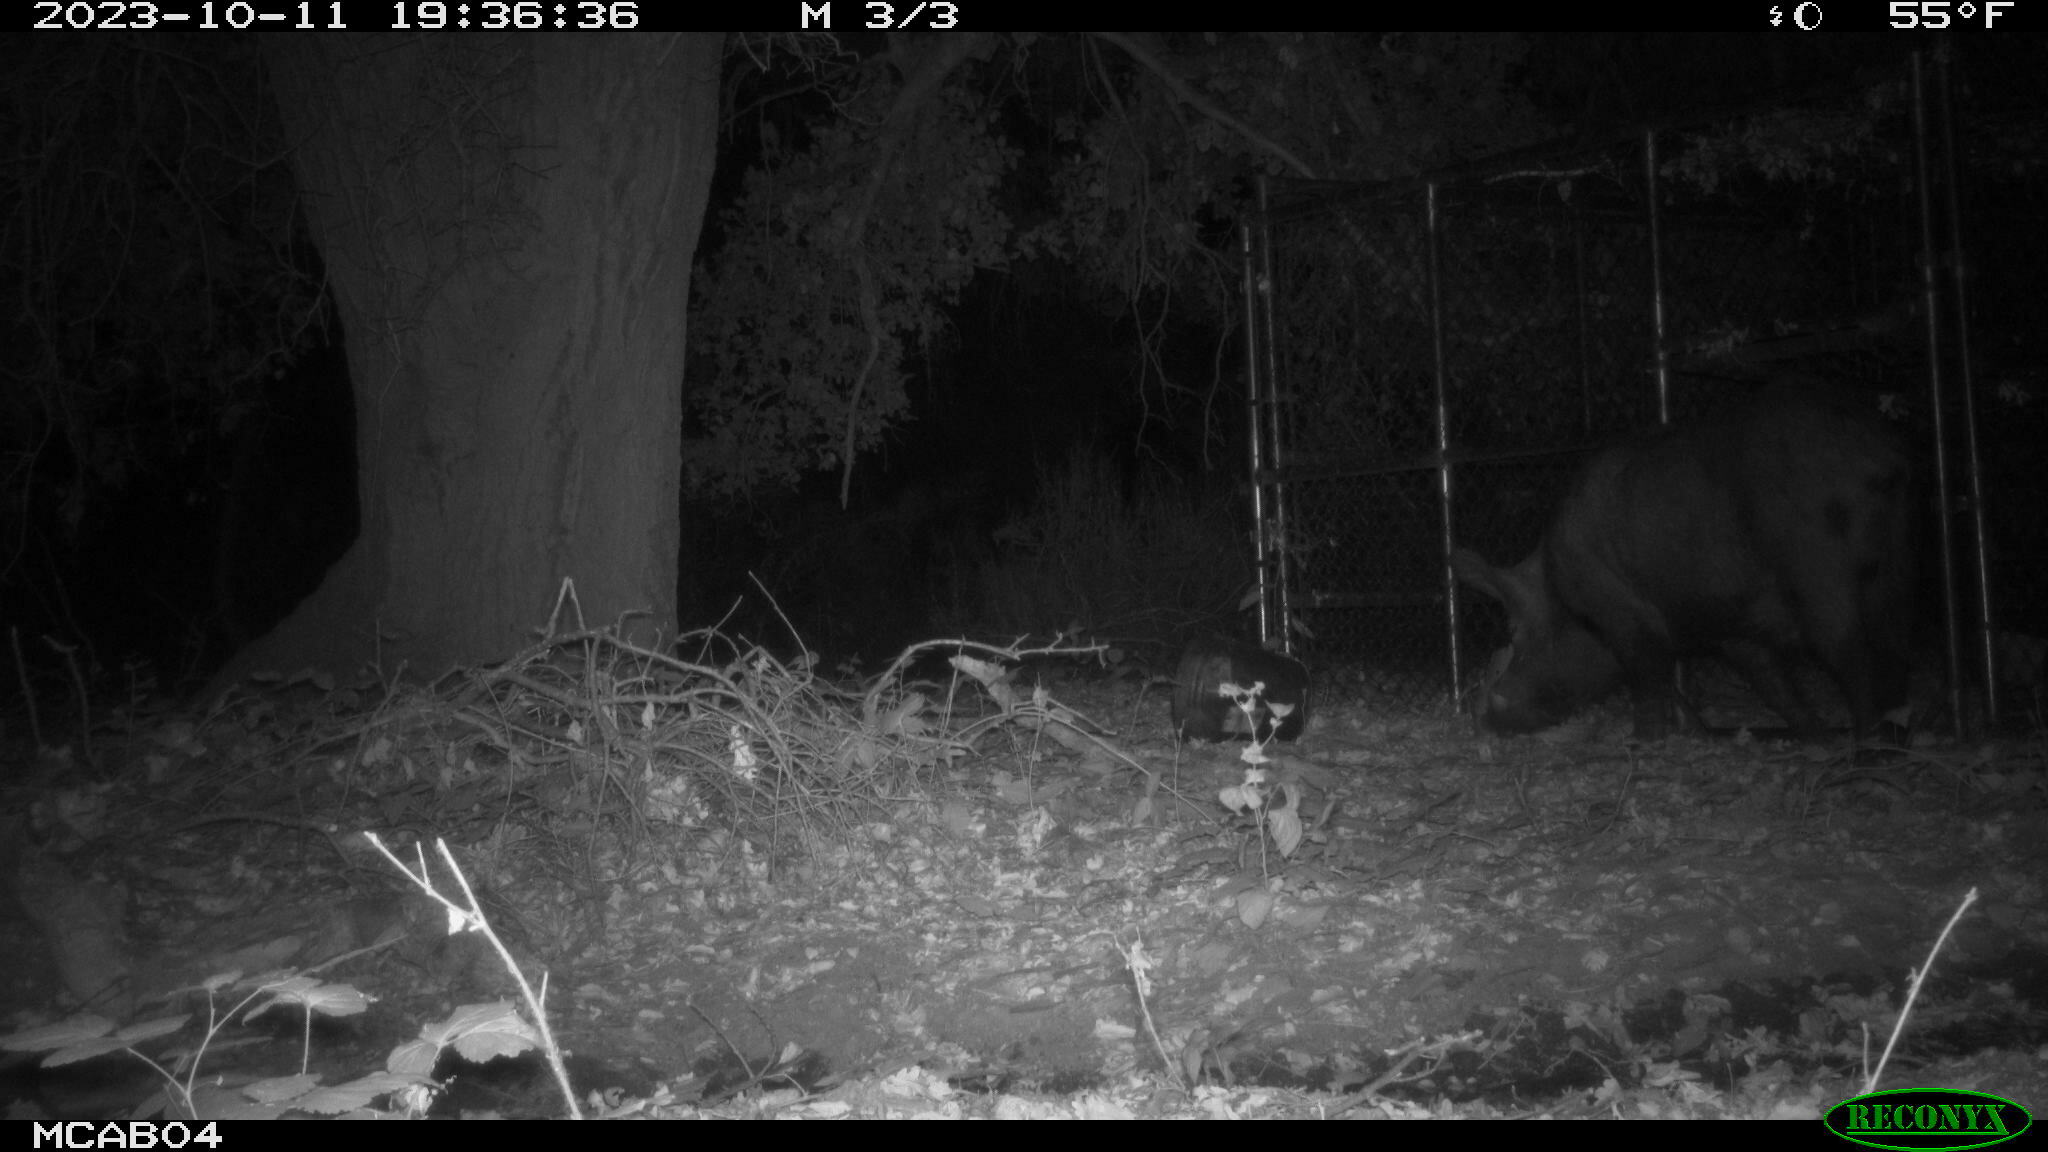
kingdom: Animalia
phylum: Chordata
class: Mammalia
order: Artiodactyla
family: Suidae
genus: Sus
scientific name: Sus scrofa
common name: Wild boar
